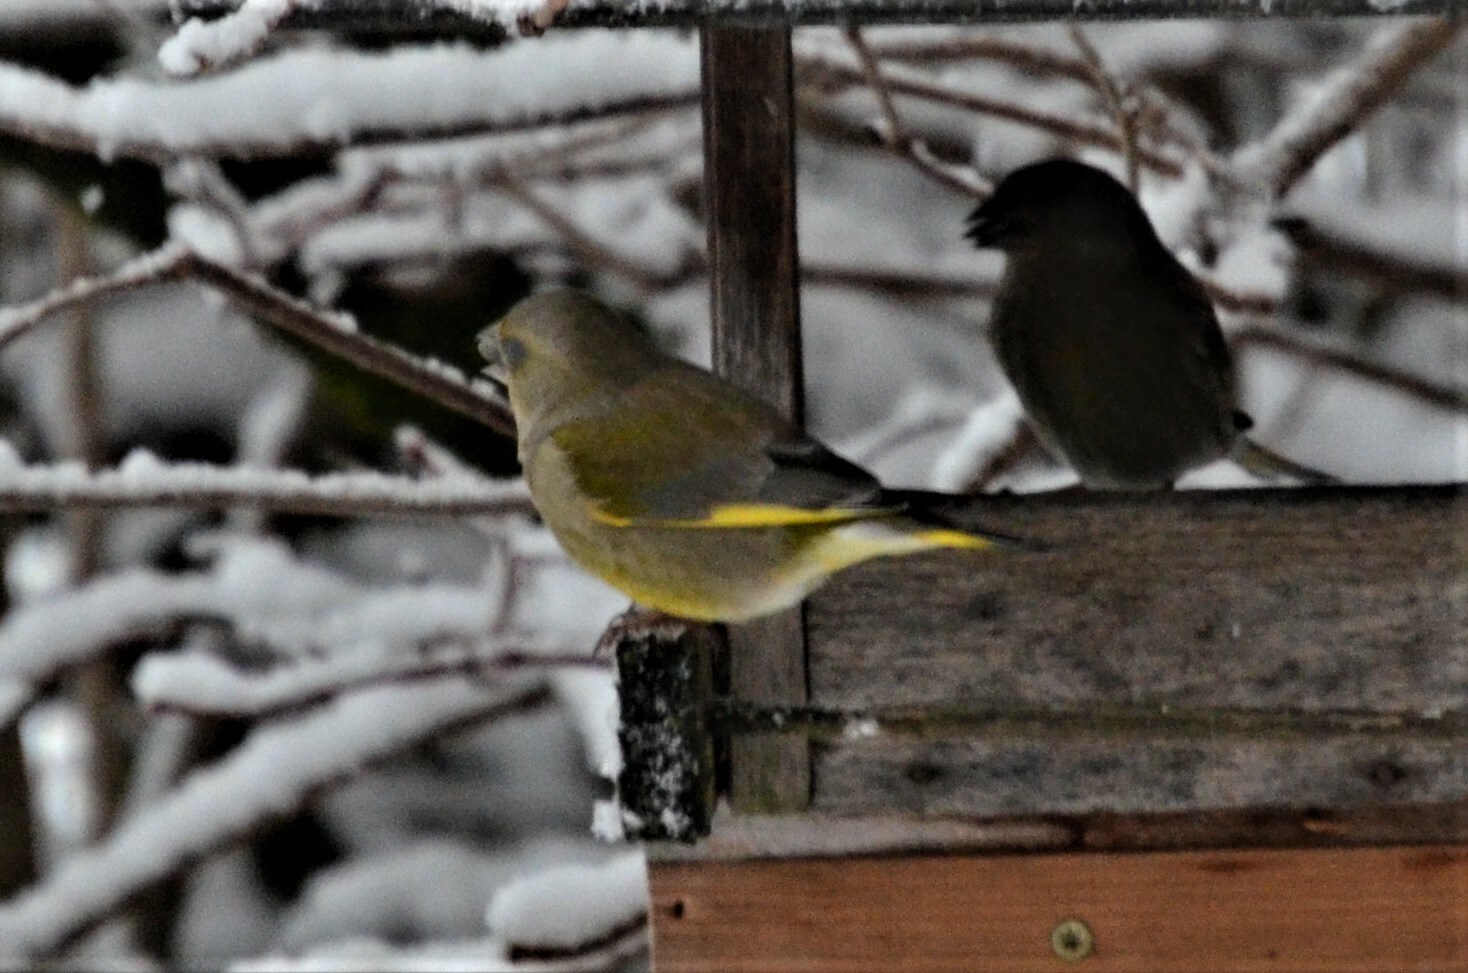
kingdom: Plantae
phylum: Tracheophyta
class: Liliopsida
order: Poales
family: Poaceae
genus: Chloris
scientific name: Chloris chloris
